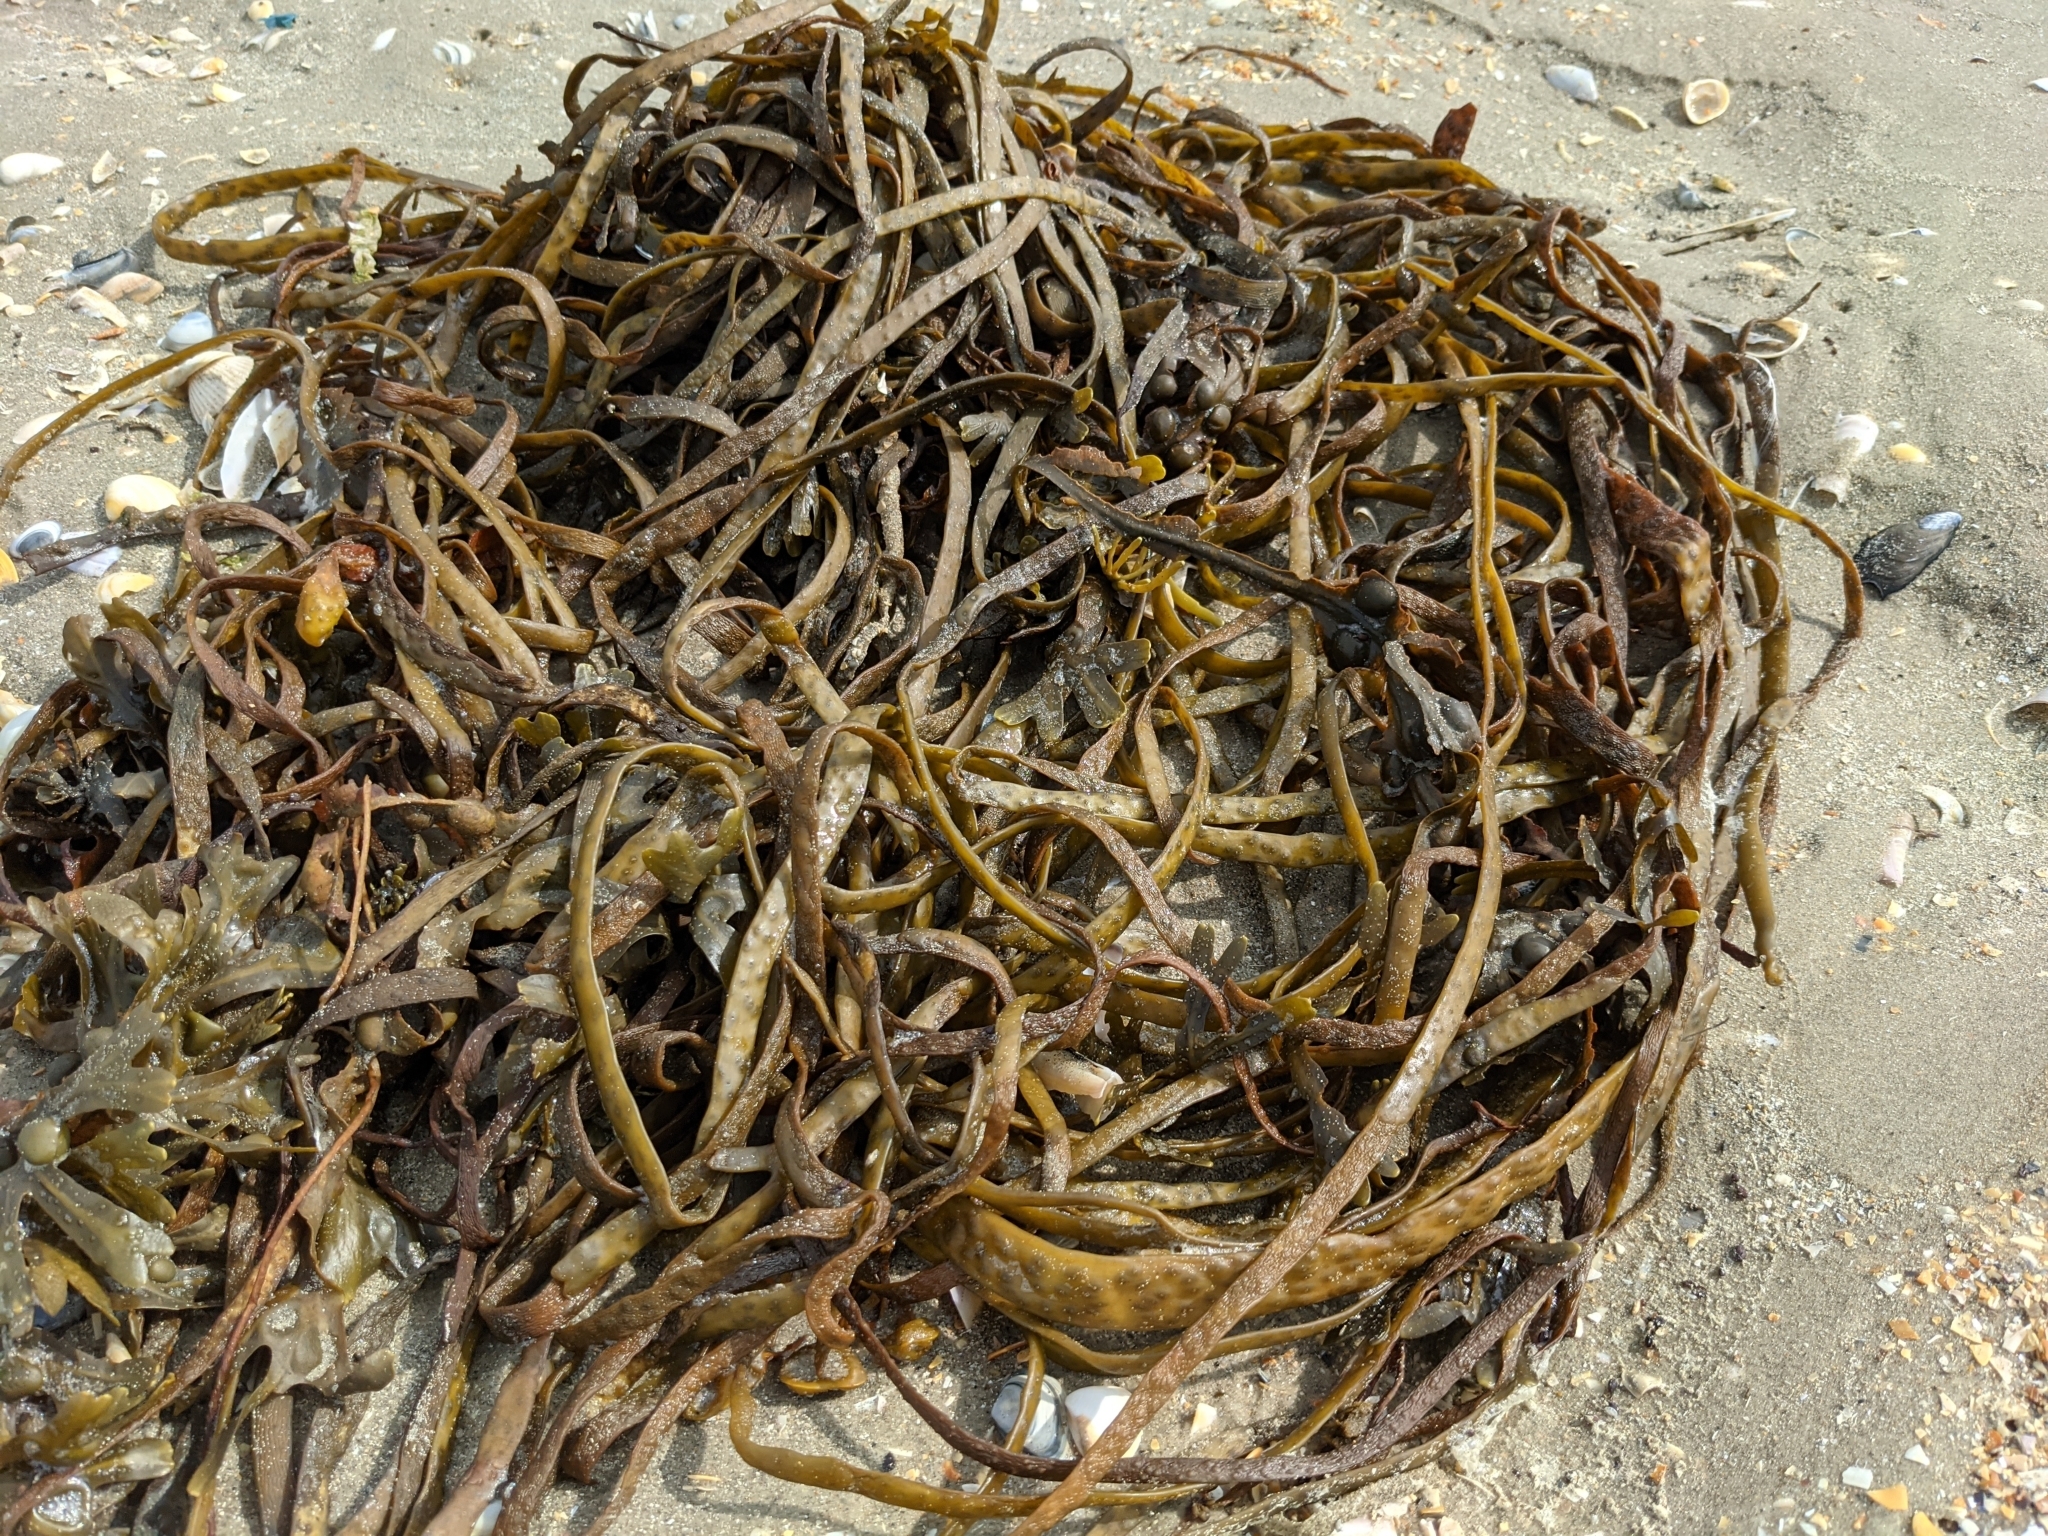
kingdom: Chromista
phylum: Ochrophyta
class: Phaeophyceae
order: Fucales
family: Himanthaliaceae
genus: Himanthalia
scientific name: Himanthalia elongata
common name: Sea-thong
